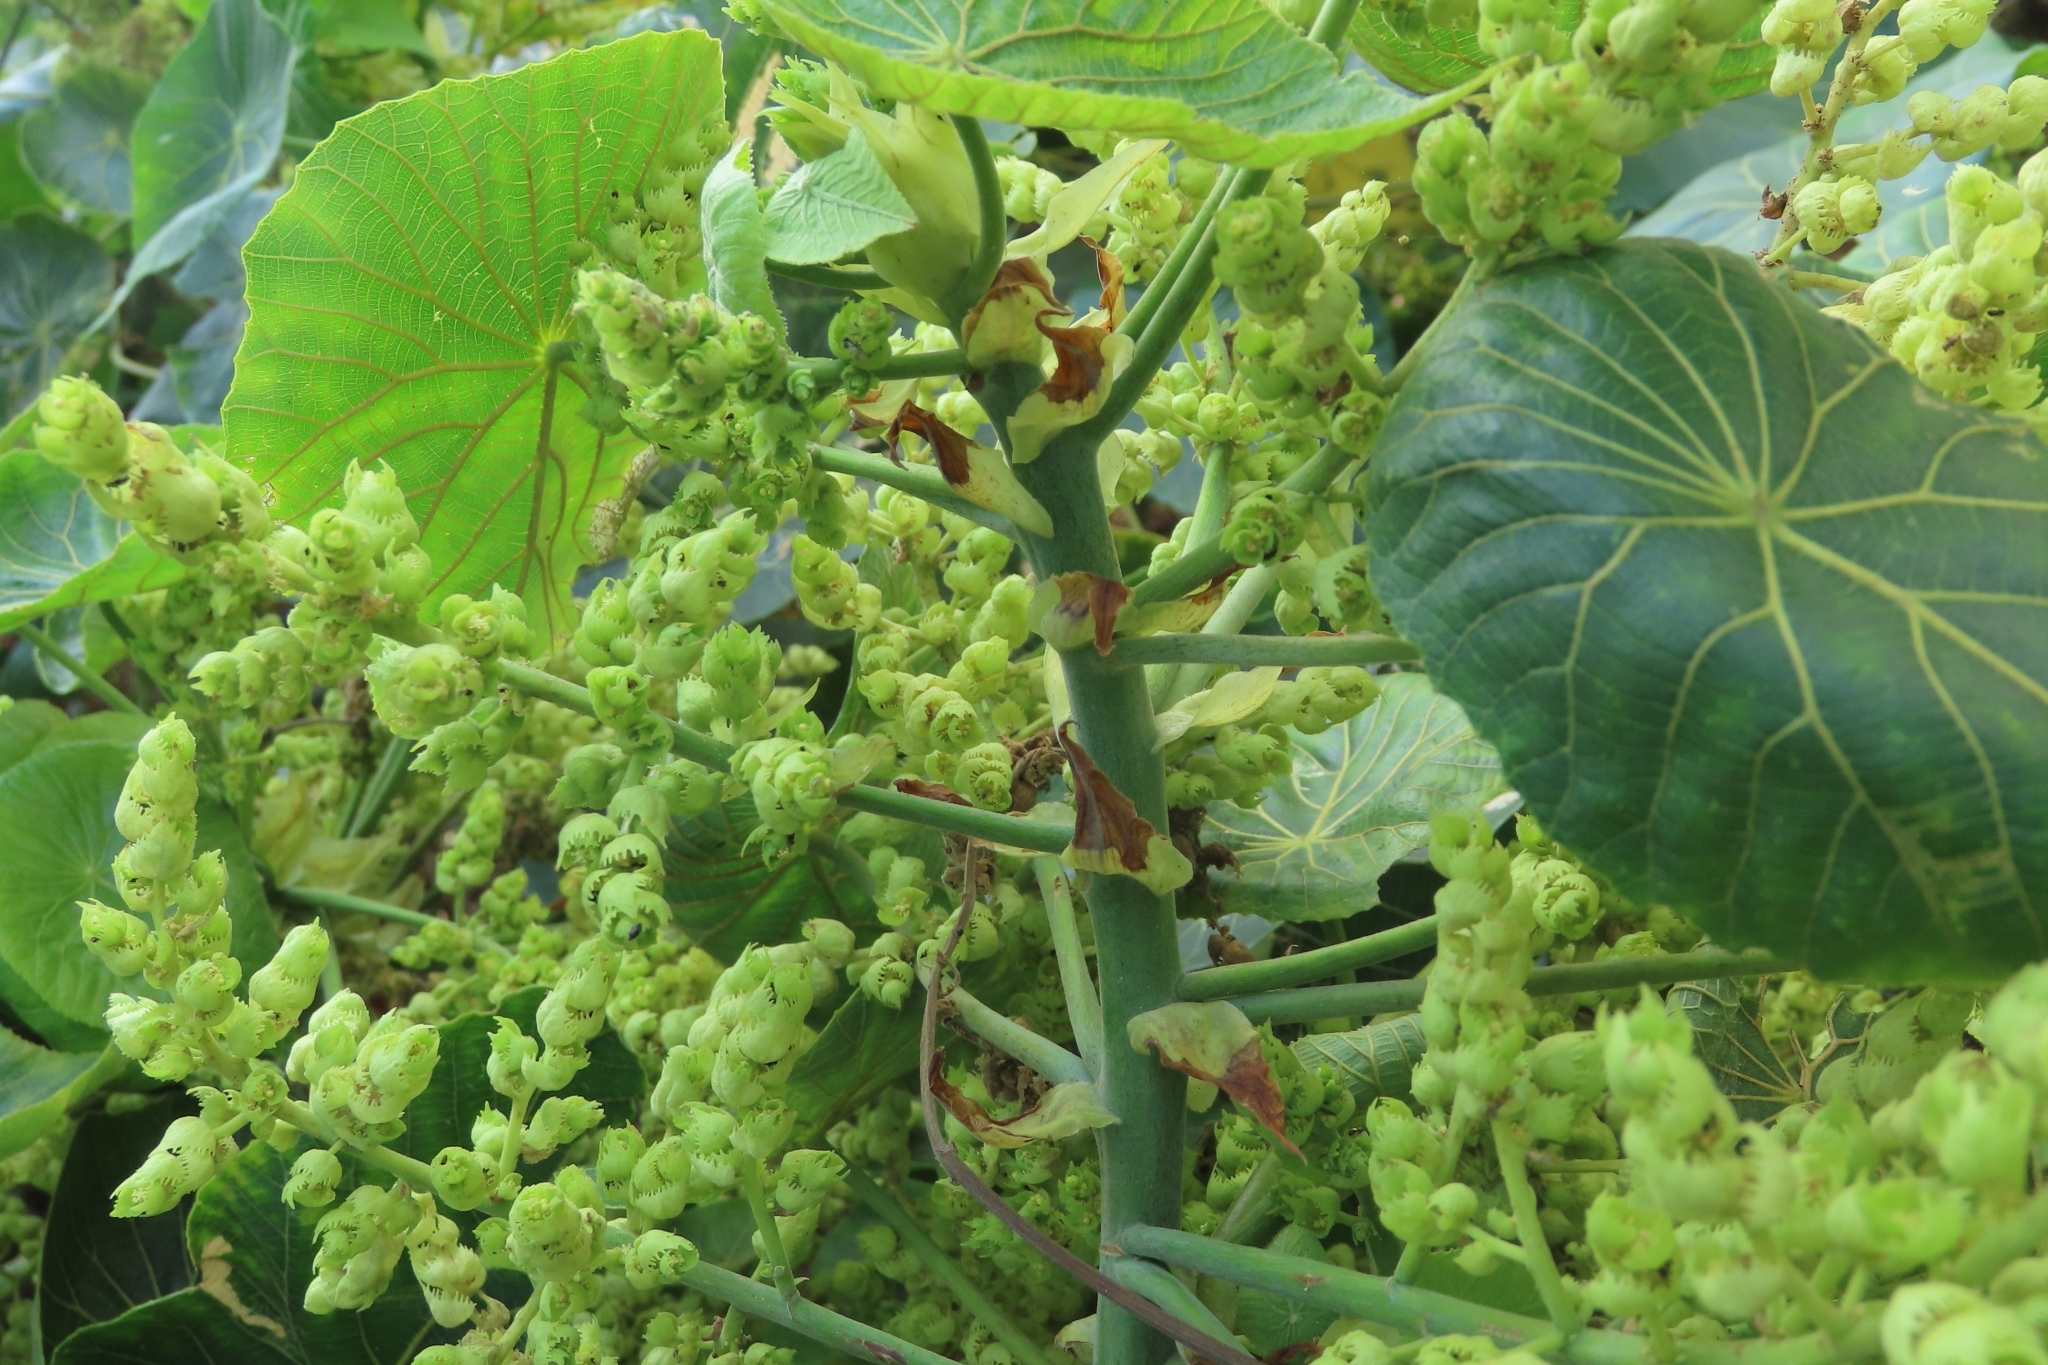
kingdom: Plantae
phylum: Tracheophyta
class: Magnoliopsida
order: Malpighiales
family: Euphorbiaceae
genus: Macaranga
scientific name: Macaranga tanarius
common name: Parasol leaf tree
